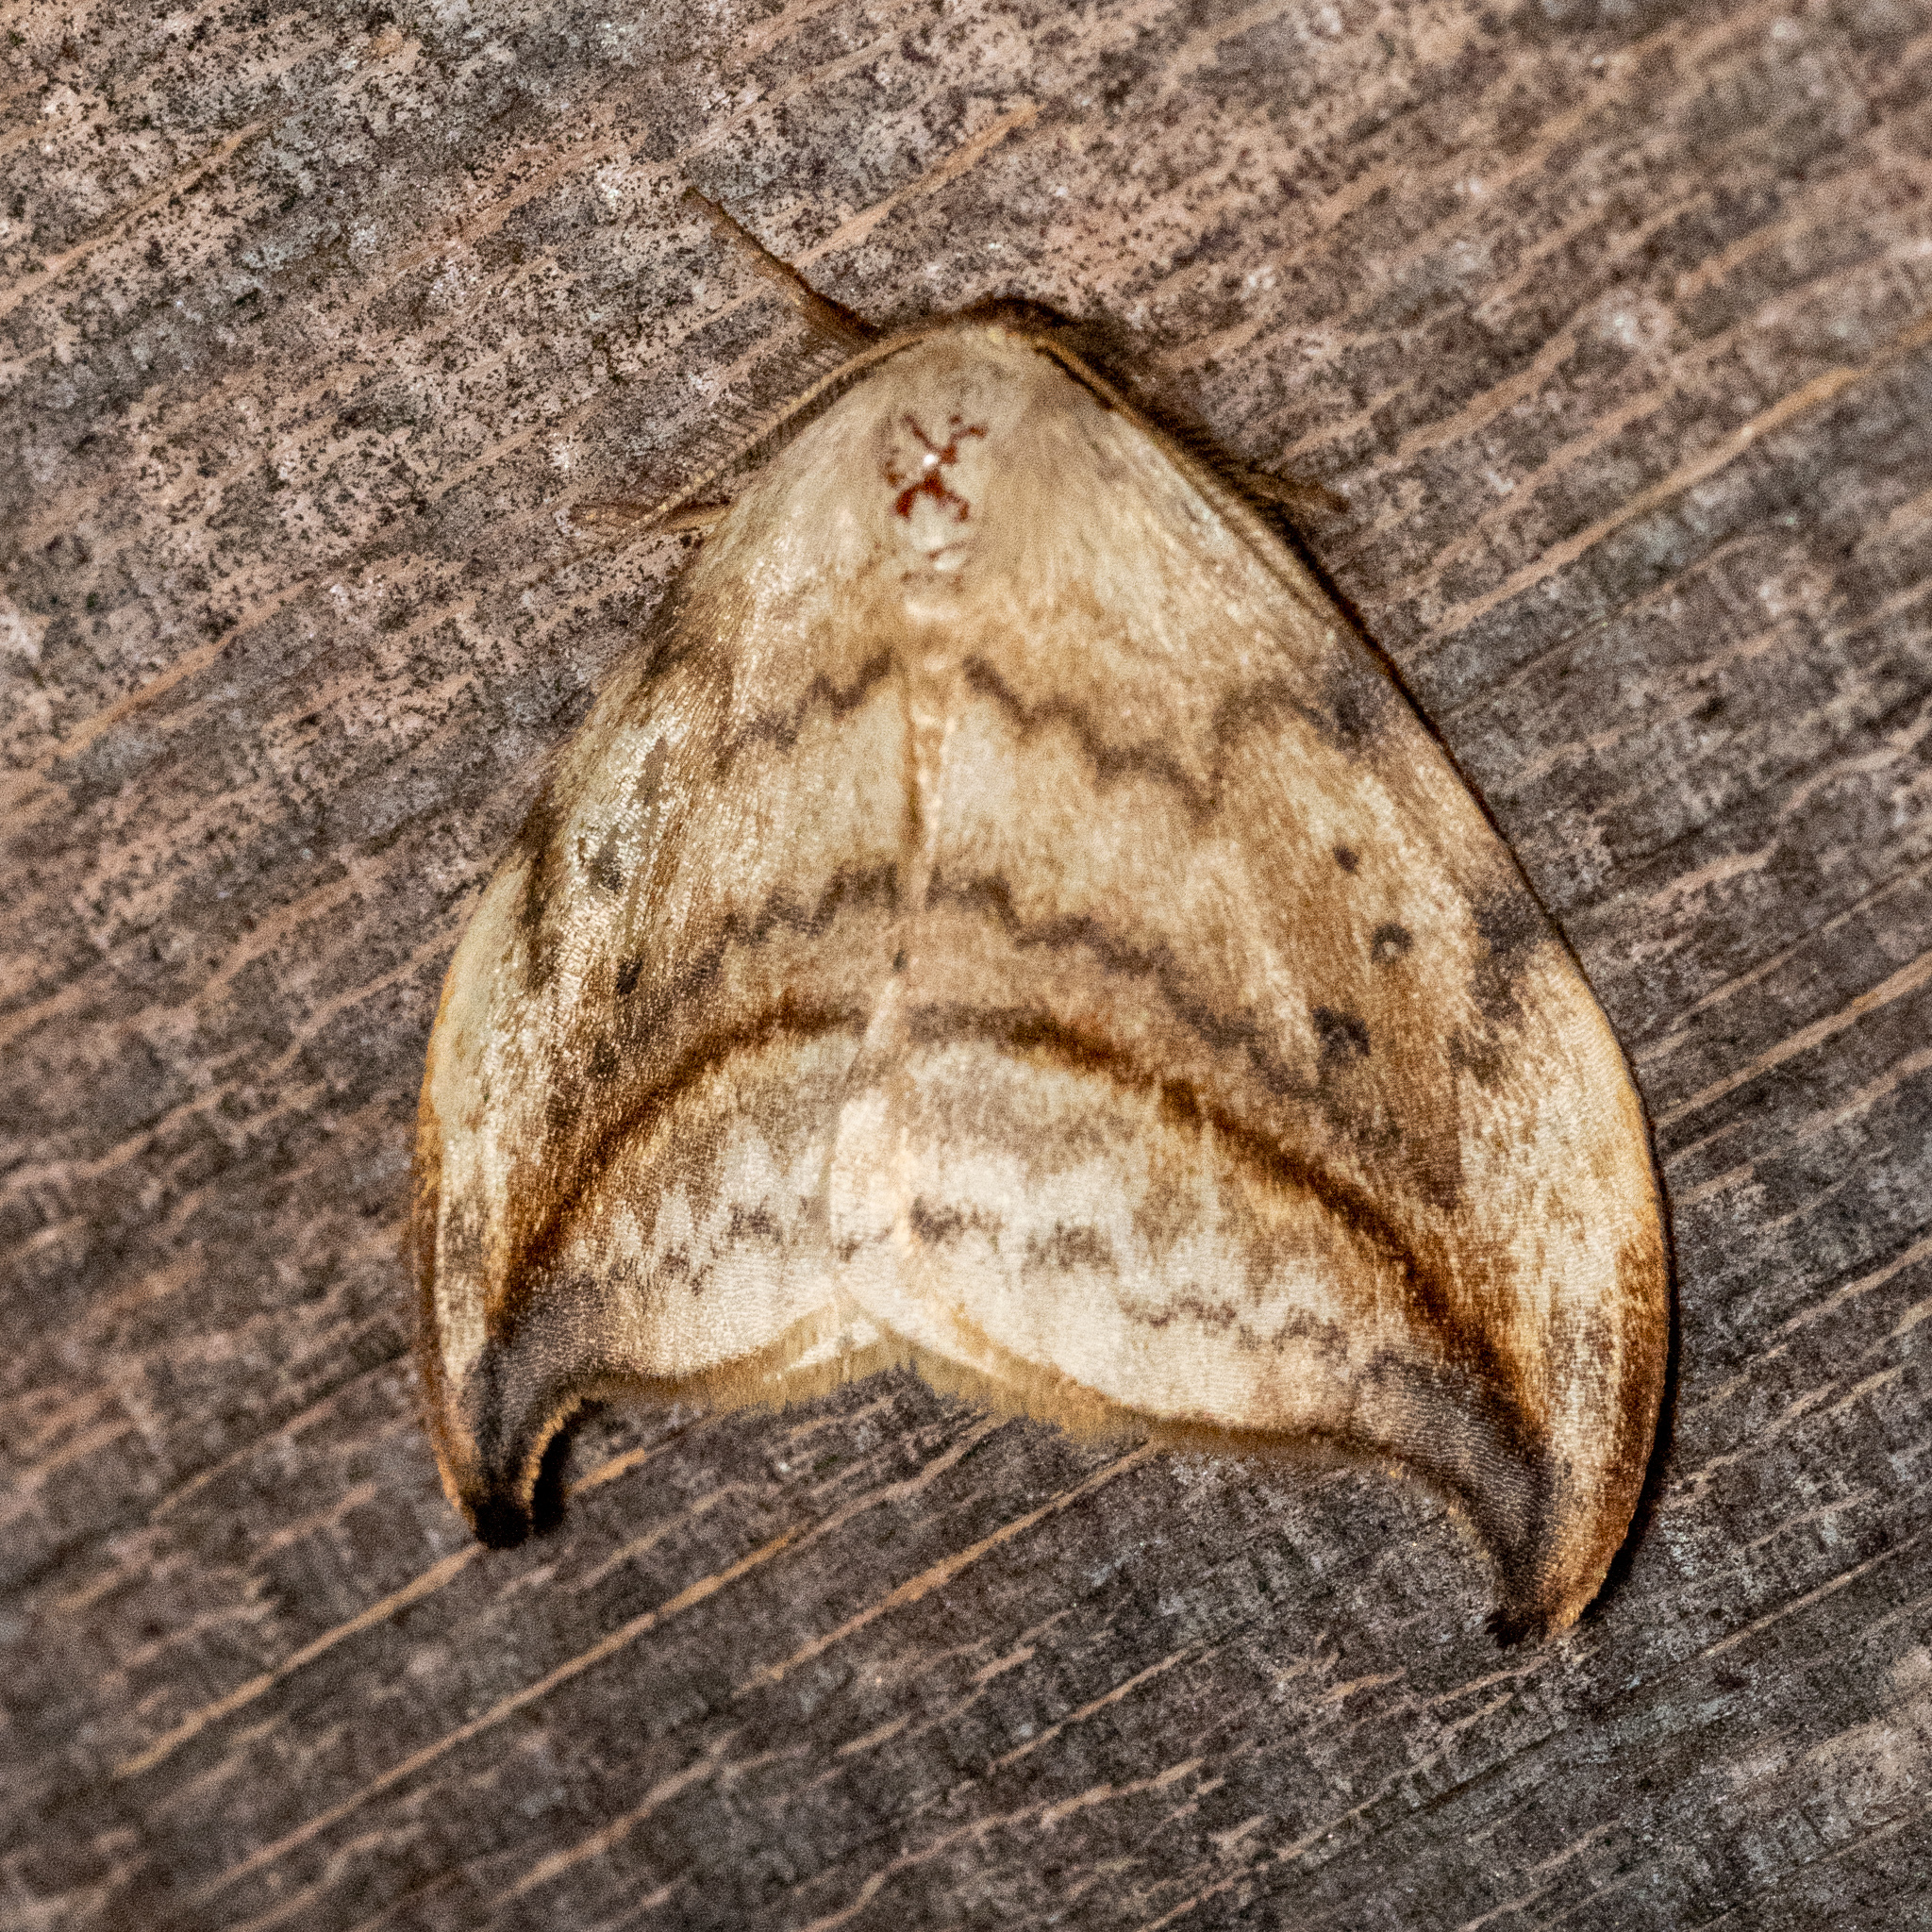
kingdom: Animalia
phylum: Arthropoda
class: Insecta
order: Lepidoptera
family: Drepanidae
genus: Drepana
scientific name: Drepana arcuata
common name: Arched hooktip moth
